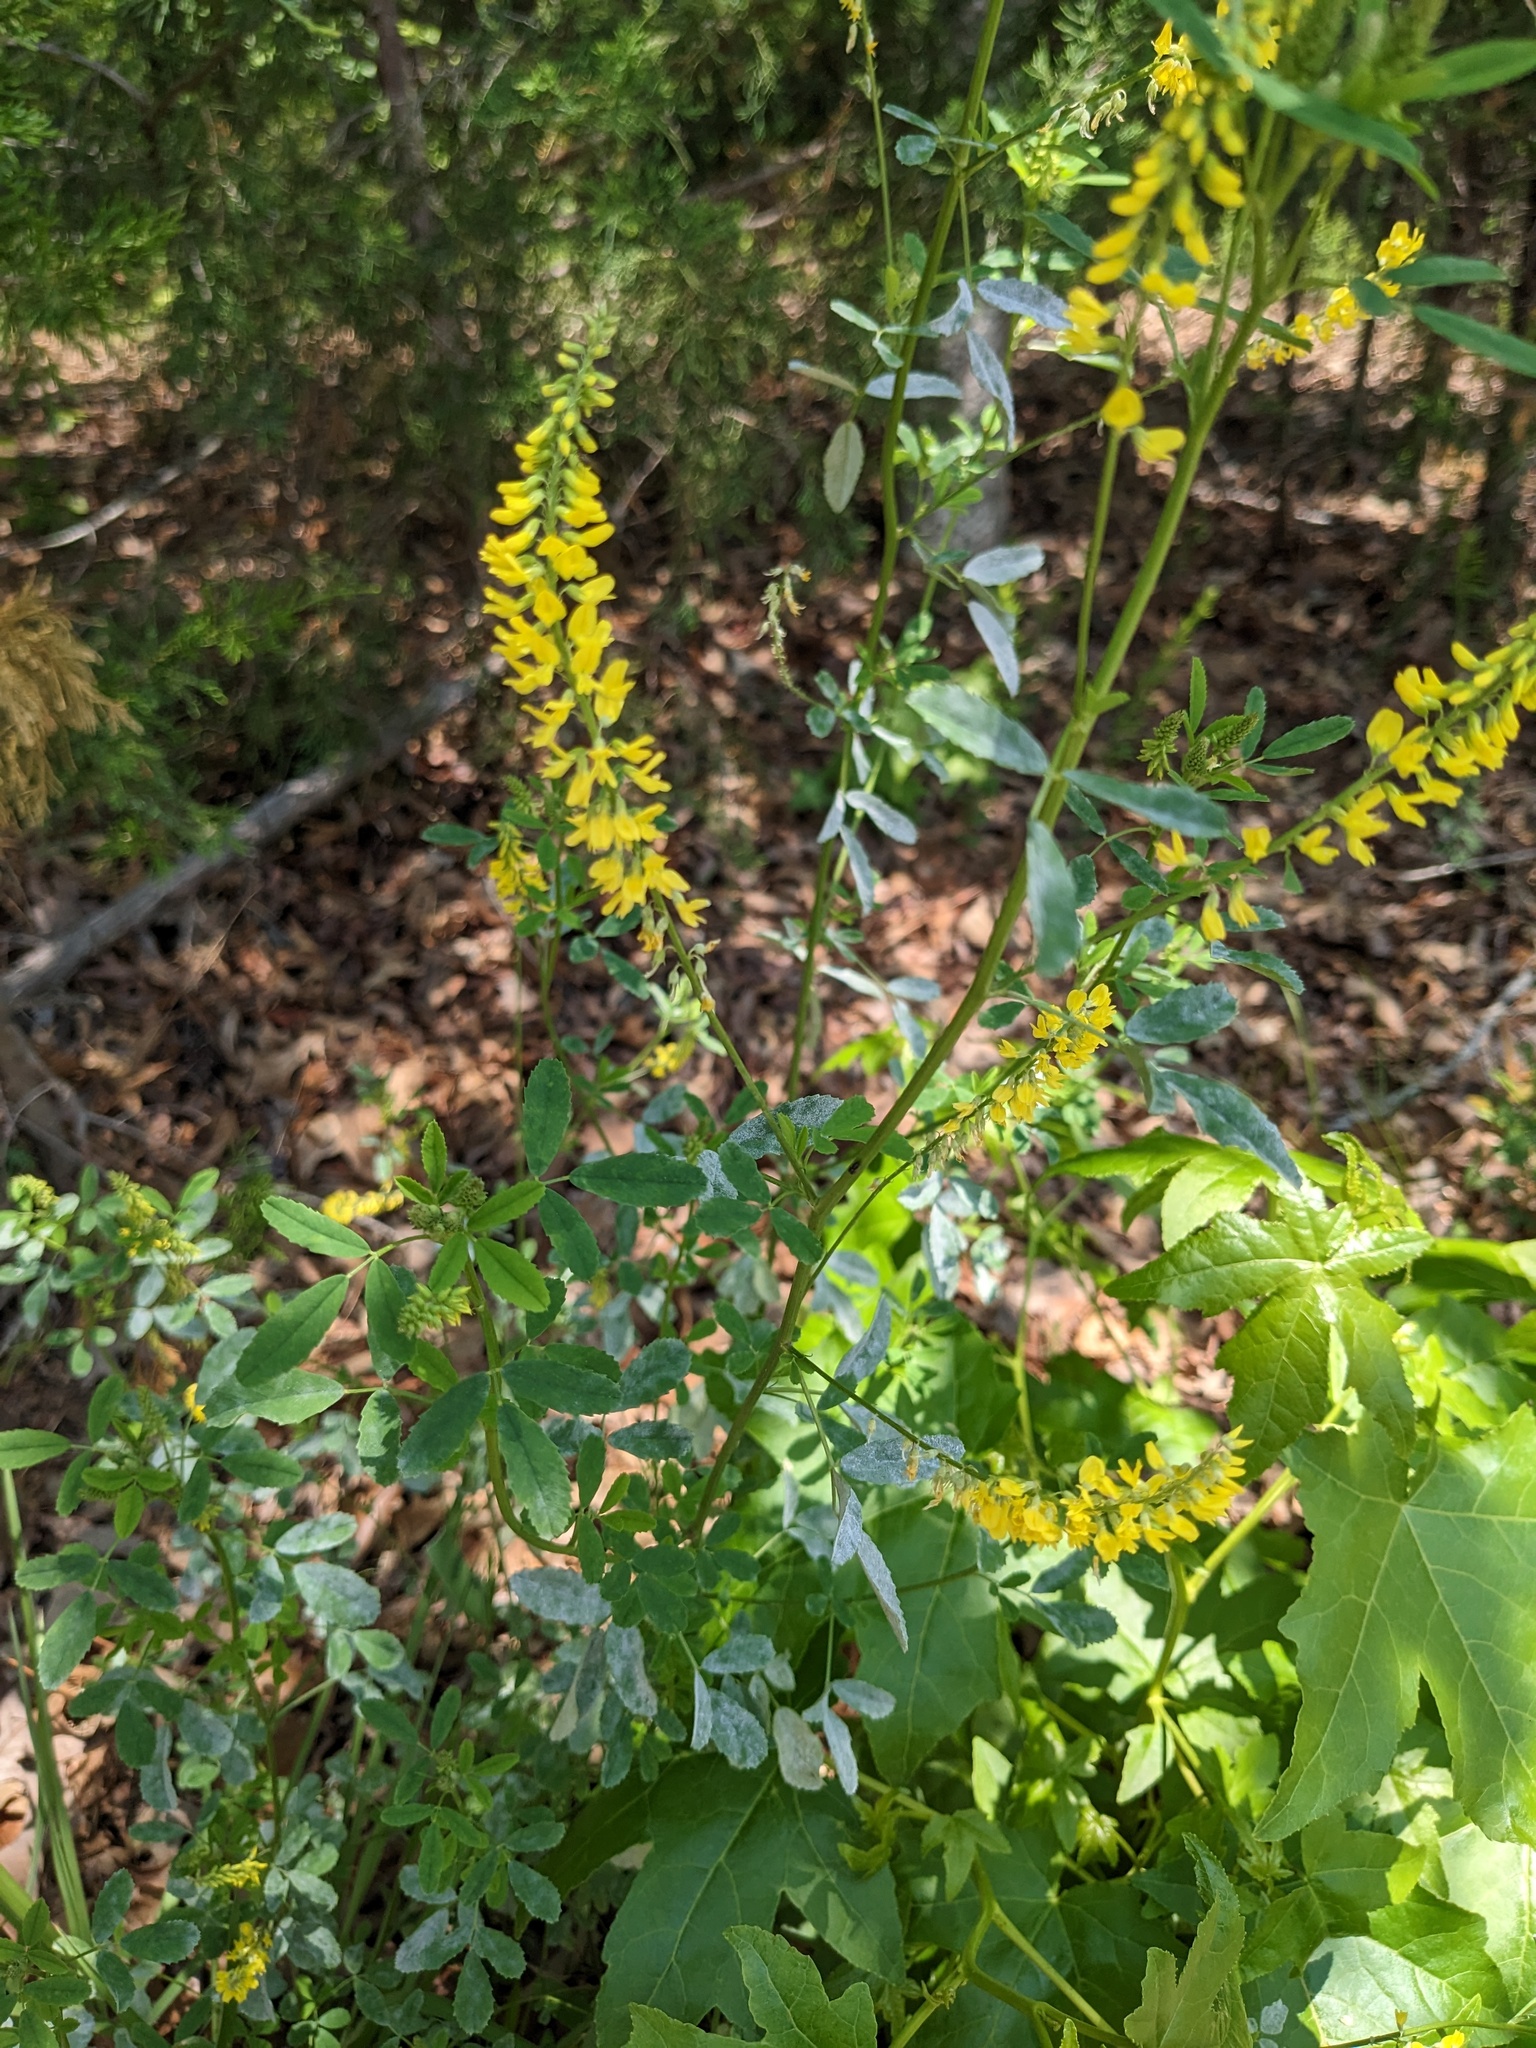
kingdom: Plantae
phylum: Tracheophyta
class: Magnoliopsida
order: Fabales
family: Fabaceae
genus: Melilotus
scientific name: Melilotus officinalis
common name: Sweetclover
